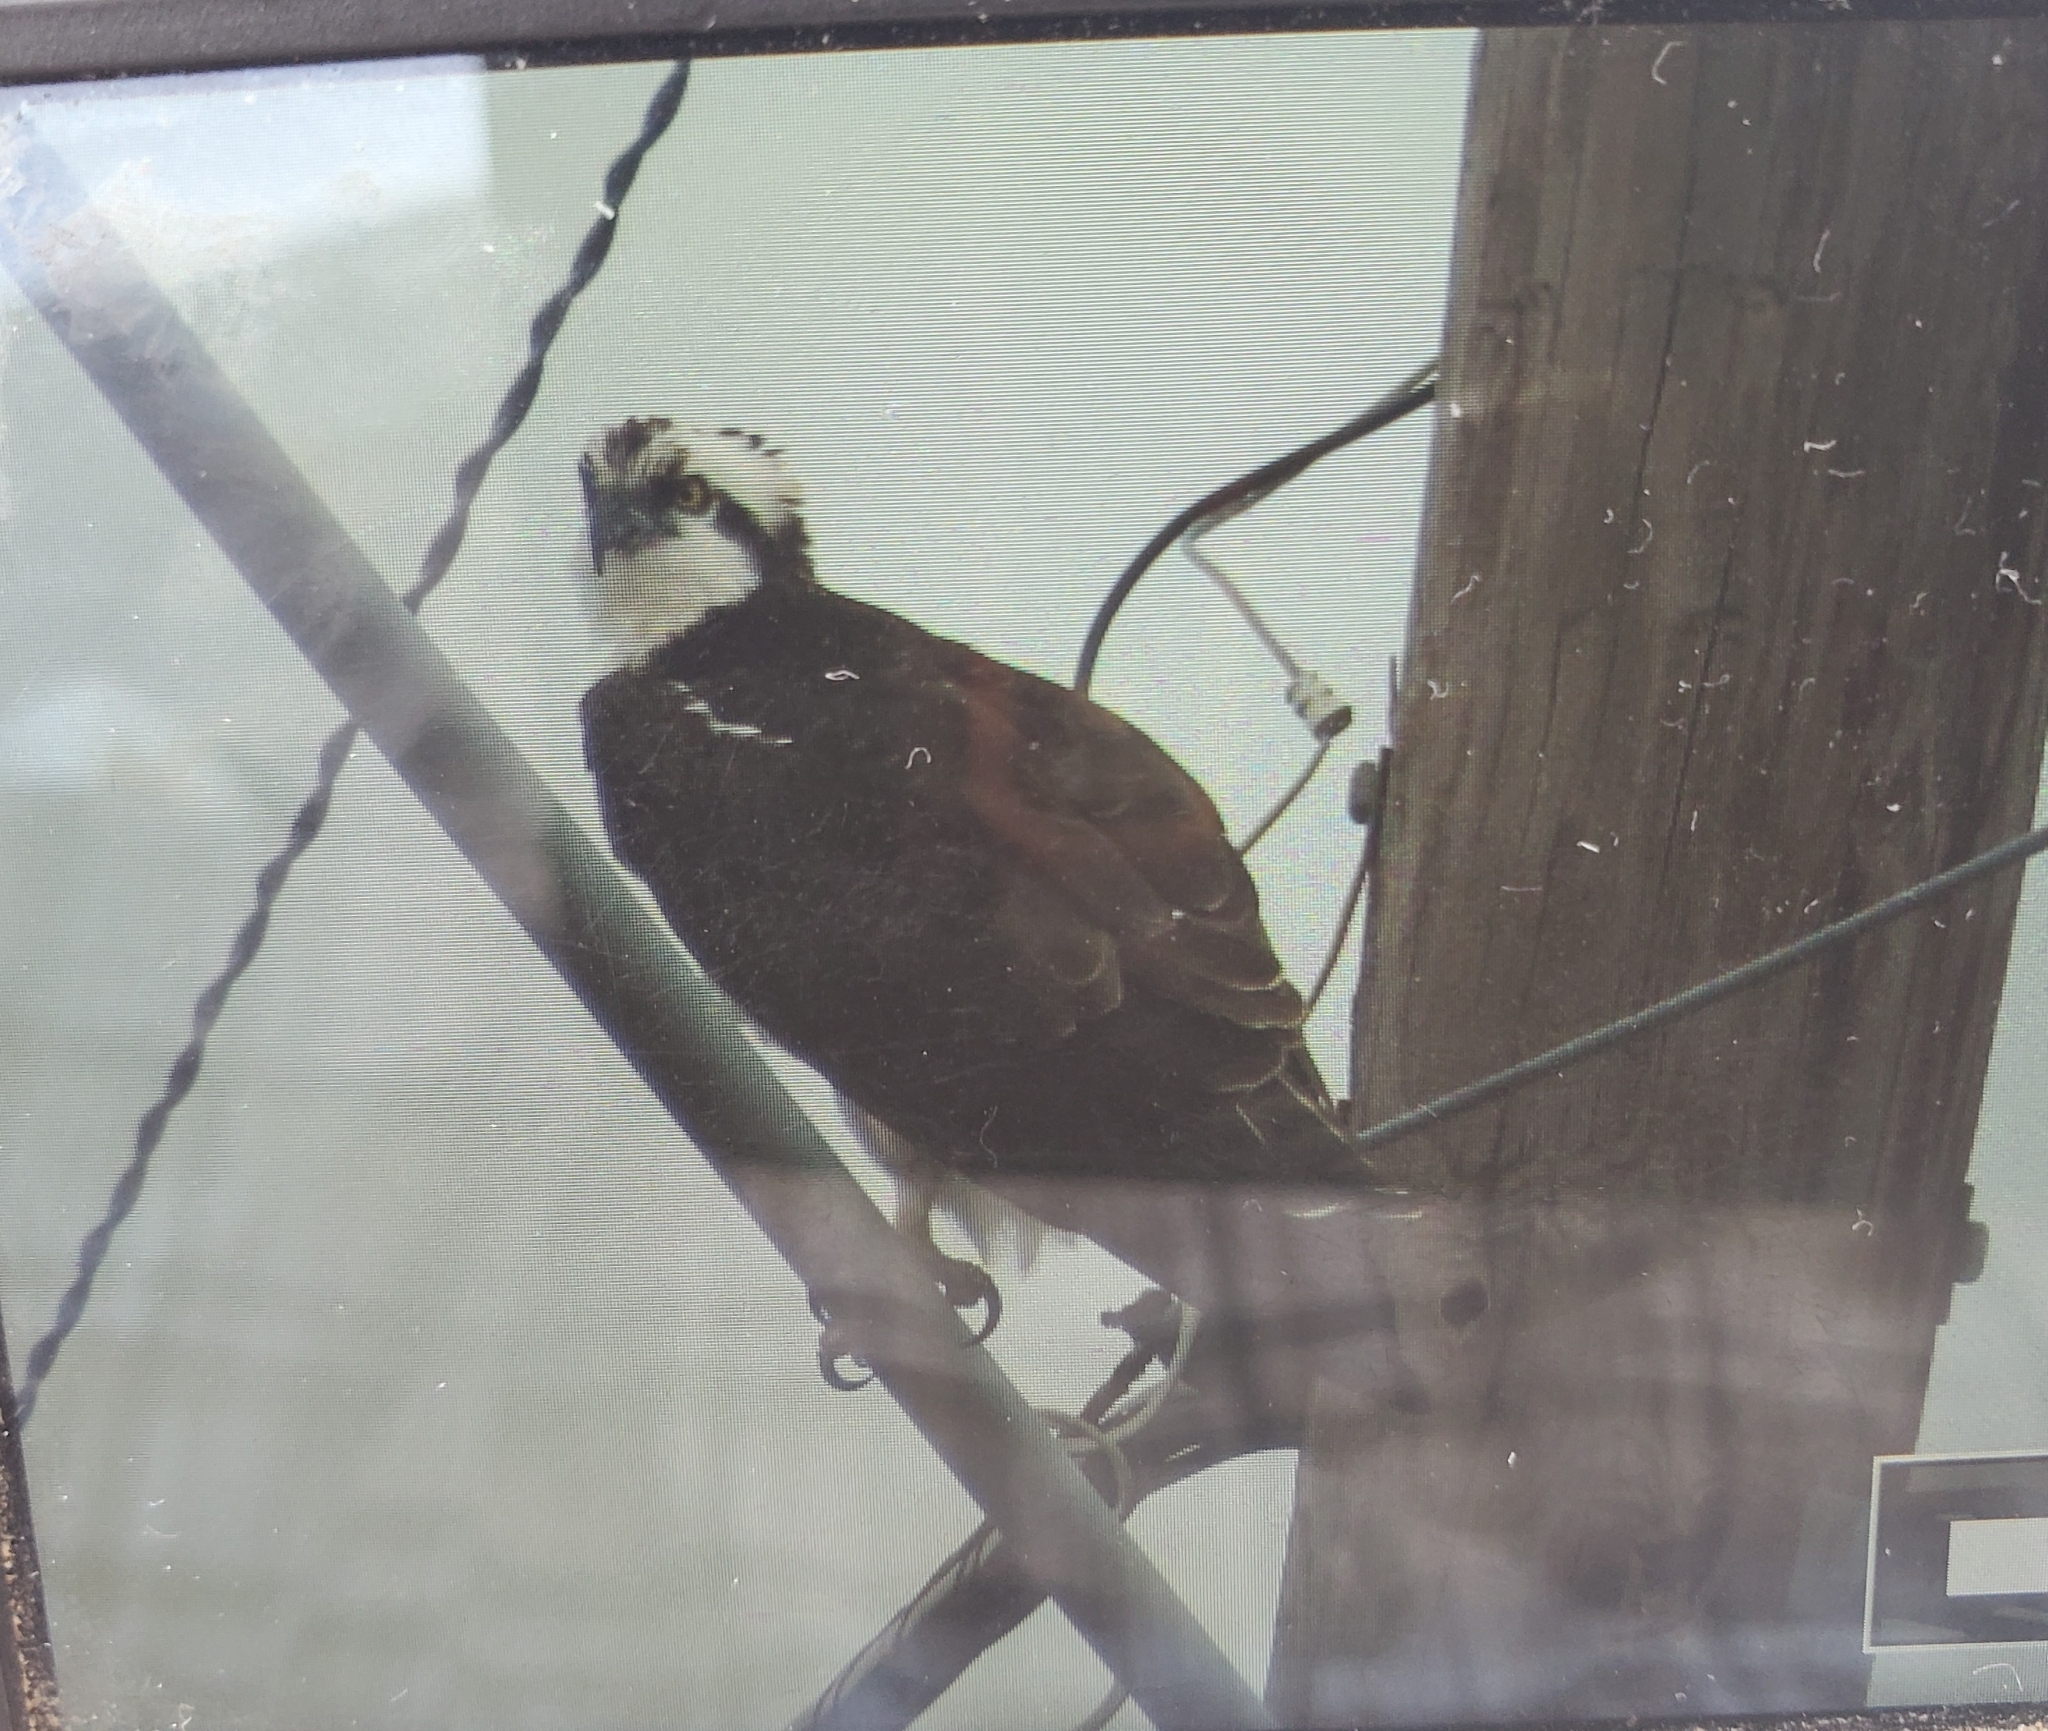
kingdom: Animalia
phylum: Chordata
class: Aves
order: Accipitriformes
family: Pandionidae
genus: Pandion
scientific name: Pandion haliaetus
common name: Osprey
